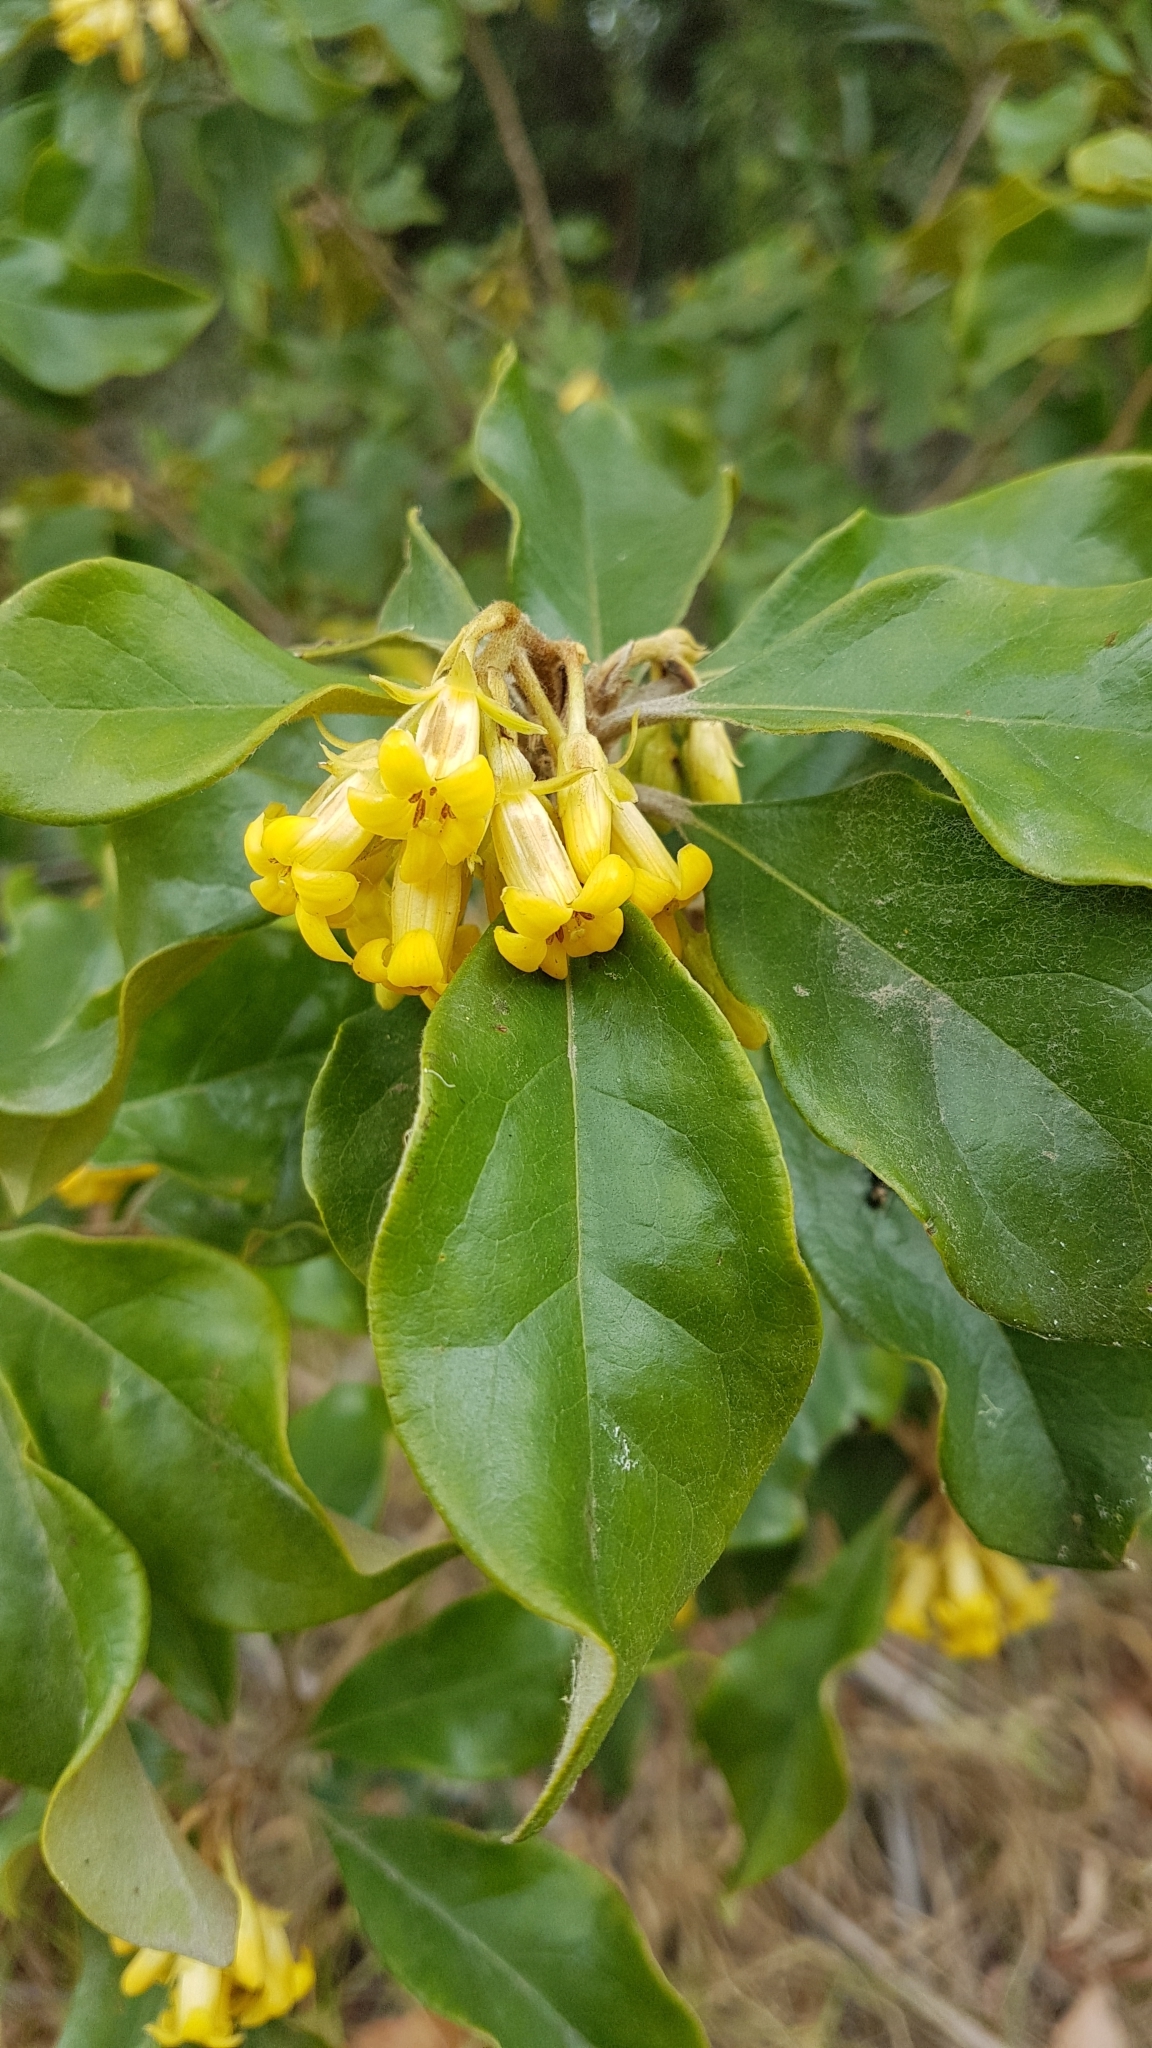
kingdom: Plantae
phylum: Tracheophyta
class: Magnoliopsida
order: Apiales
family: Pittosporaceae
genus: Pittosporum
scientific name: Pittosporum revolutum
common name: Brisbane-laurel
